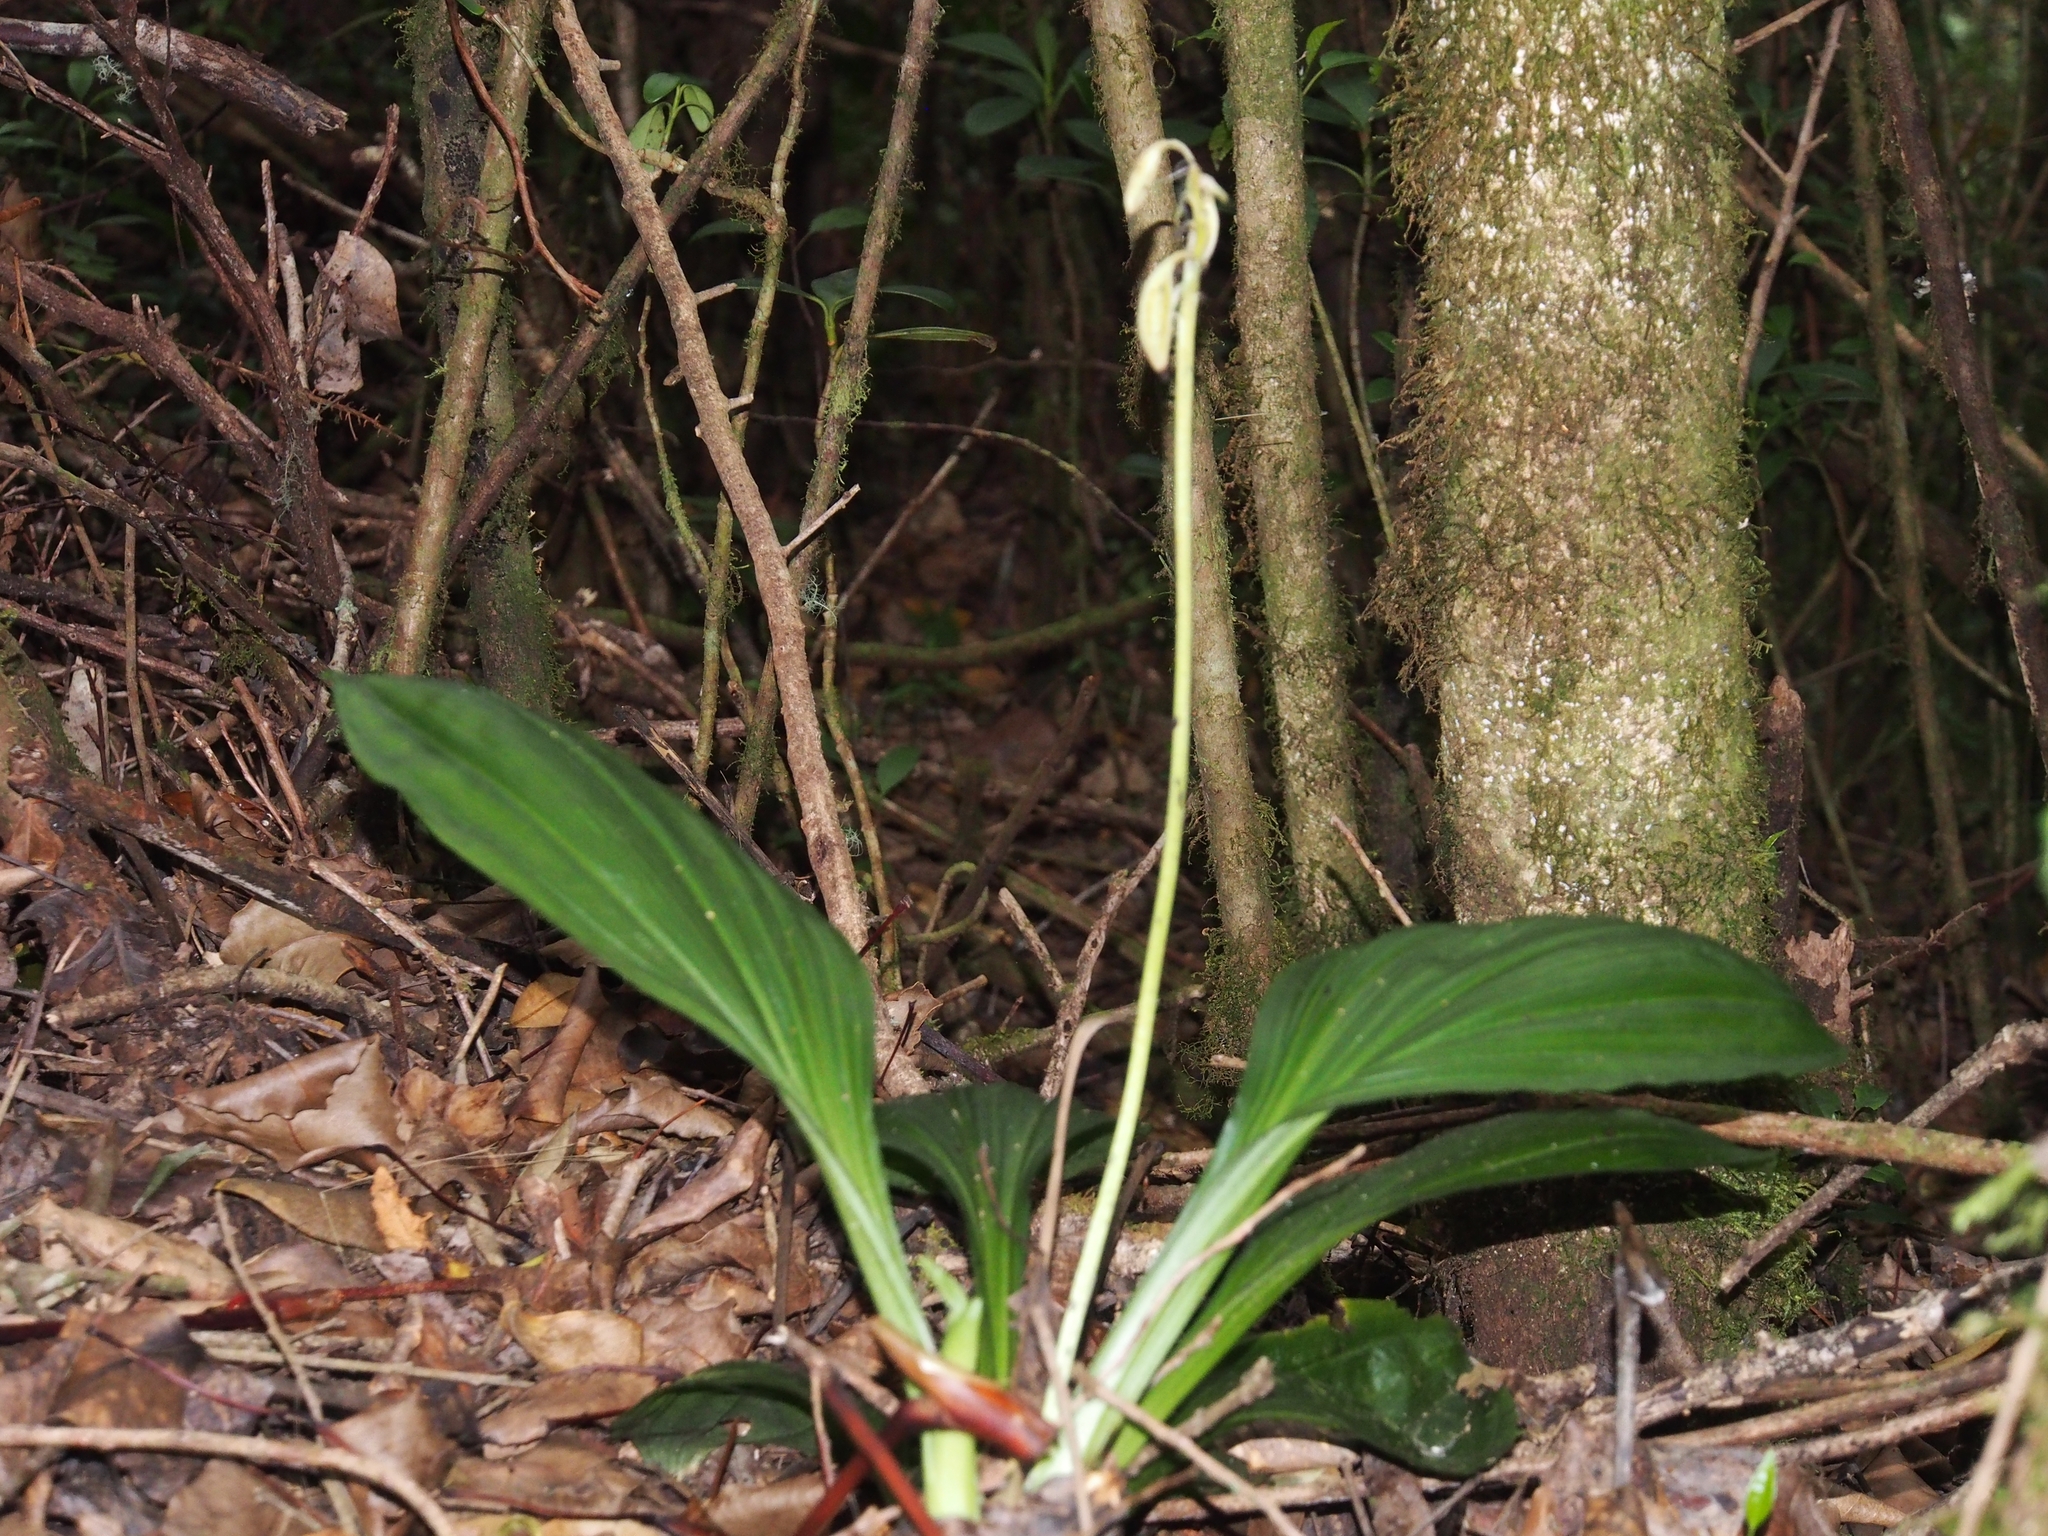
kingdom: Plantae
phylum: Tracheophyta
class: Liliopsida
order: Asparagales
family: Orchidaceae
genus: Calanthe
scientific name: Calanthe calanthoides
